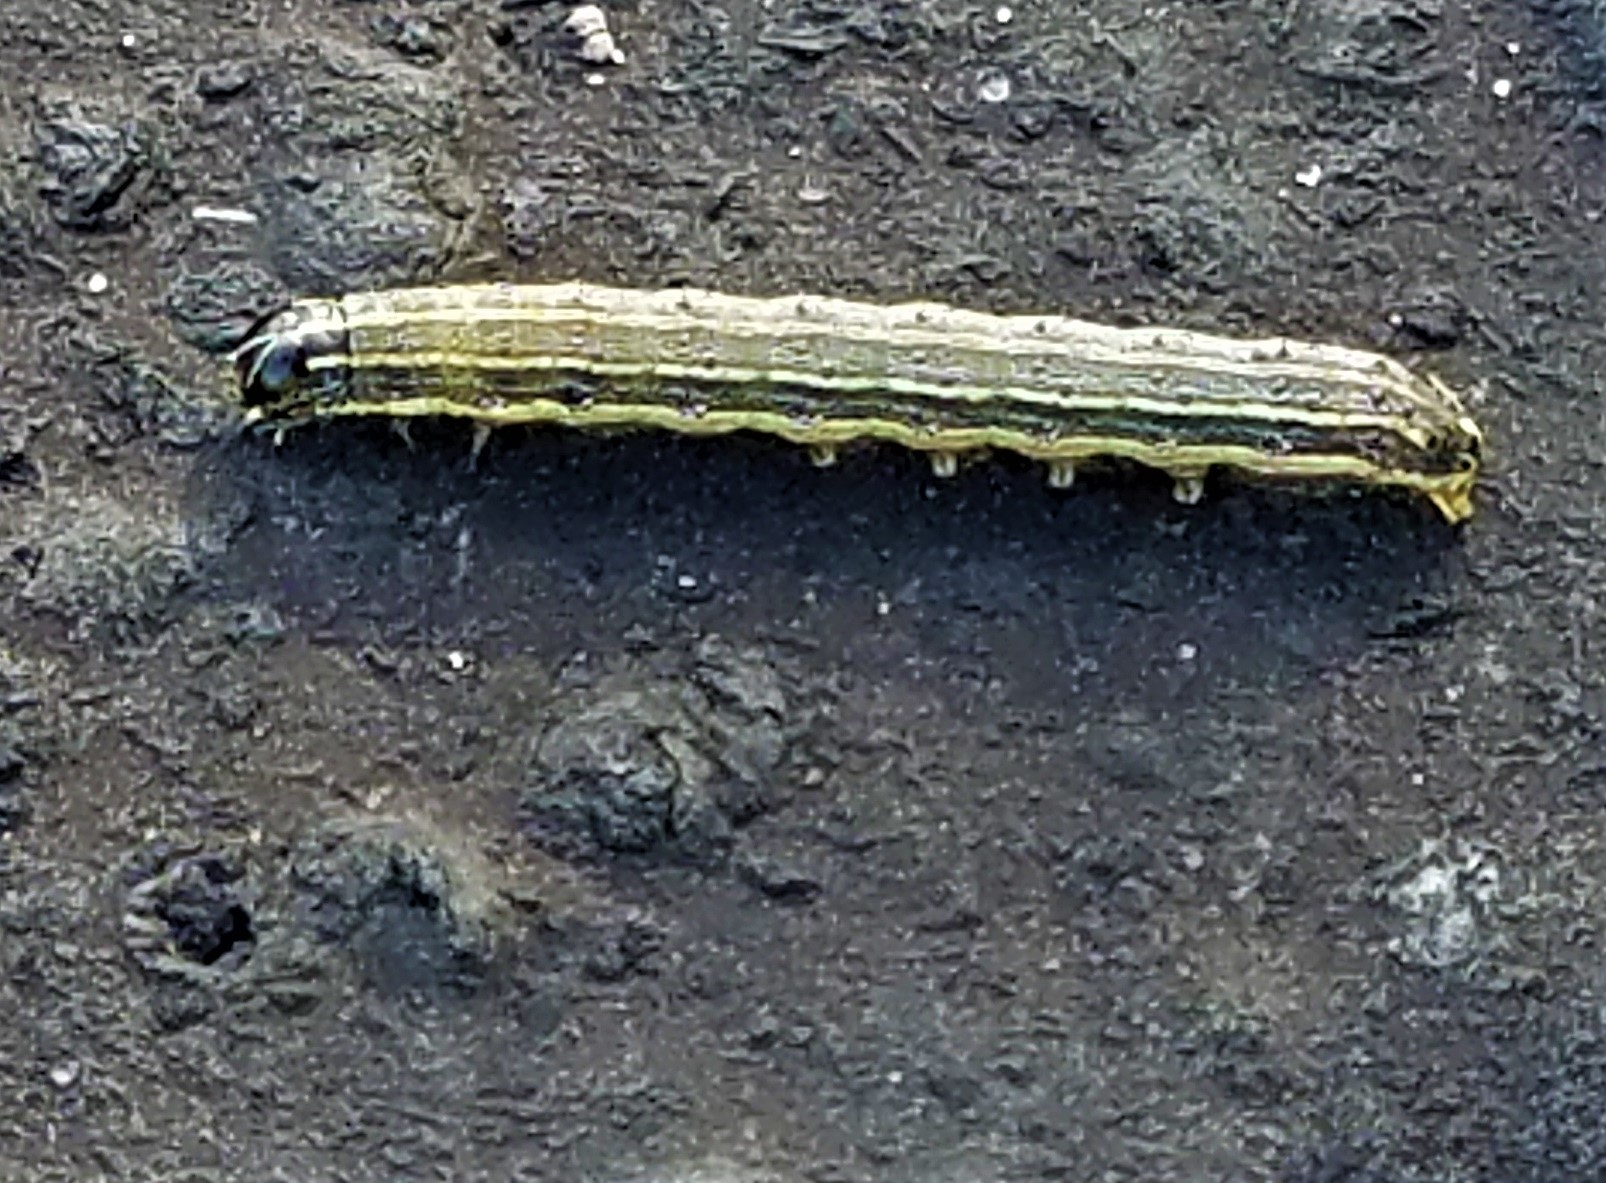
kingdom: Animalia
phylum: Arthropoda
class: Insecta
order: Lepidoptera
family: Noctuidae
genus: Spodoptera
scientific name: Spodoptera frugiperda
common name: Fall armyworm
